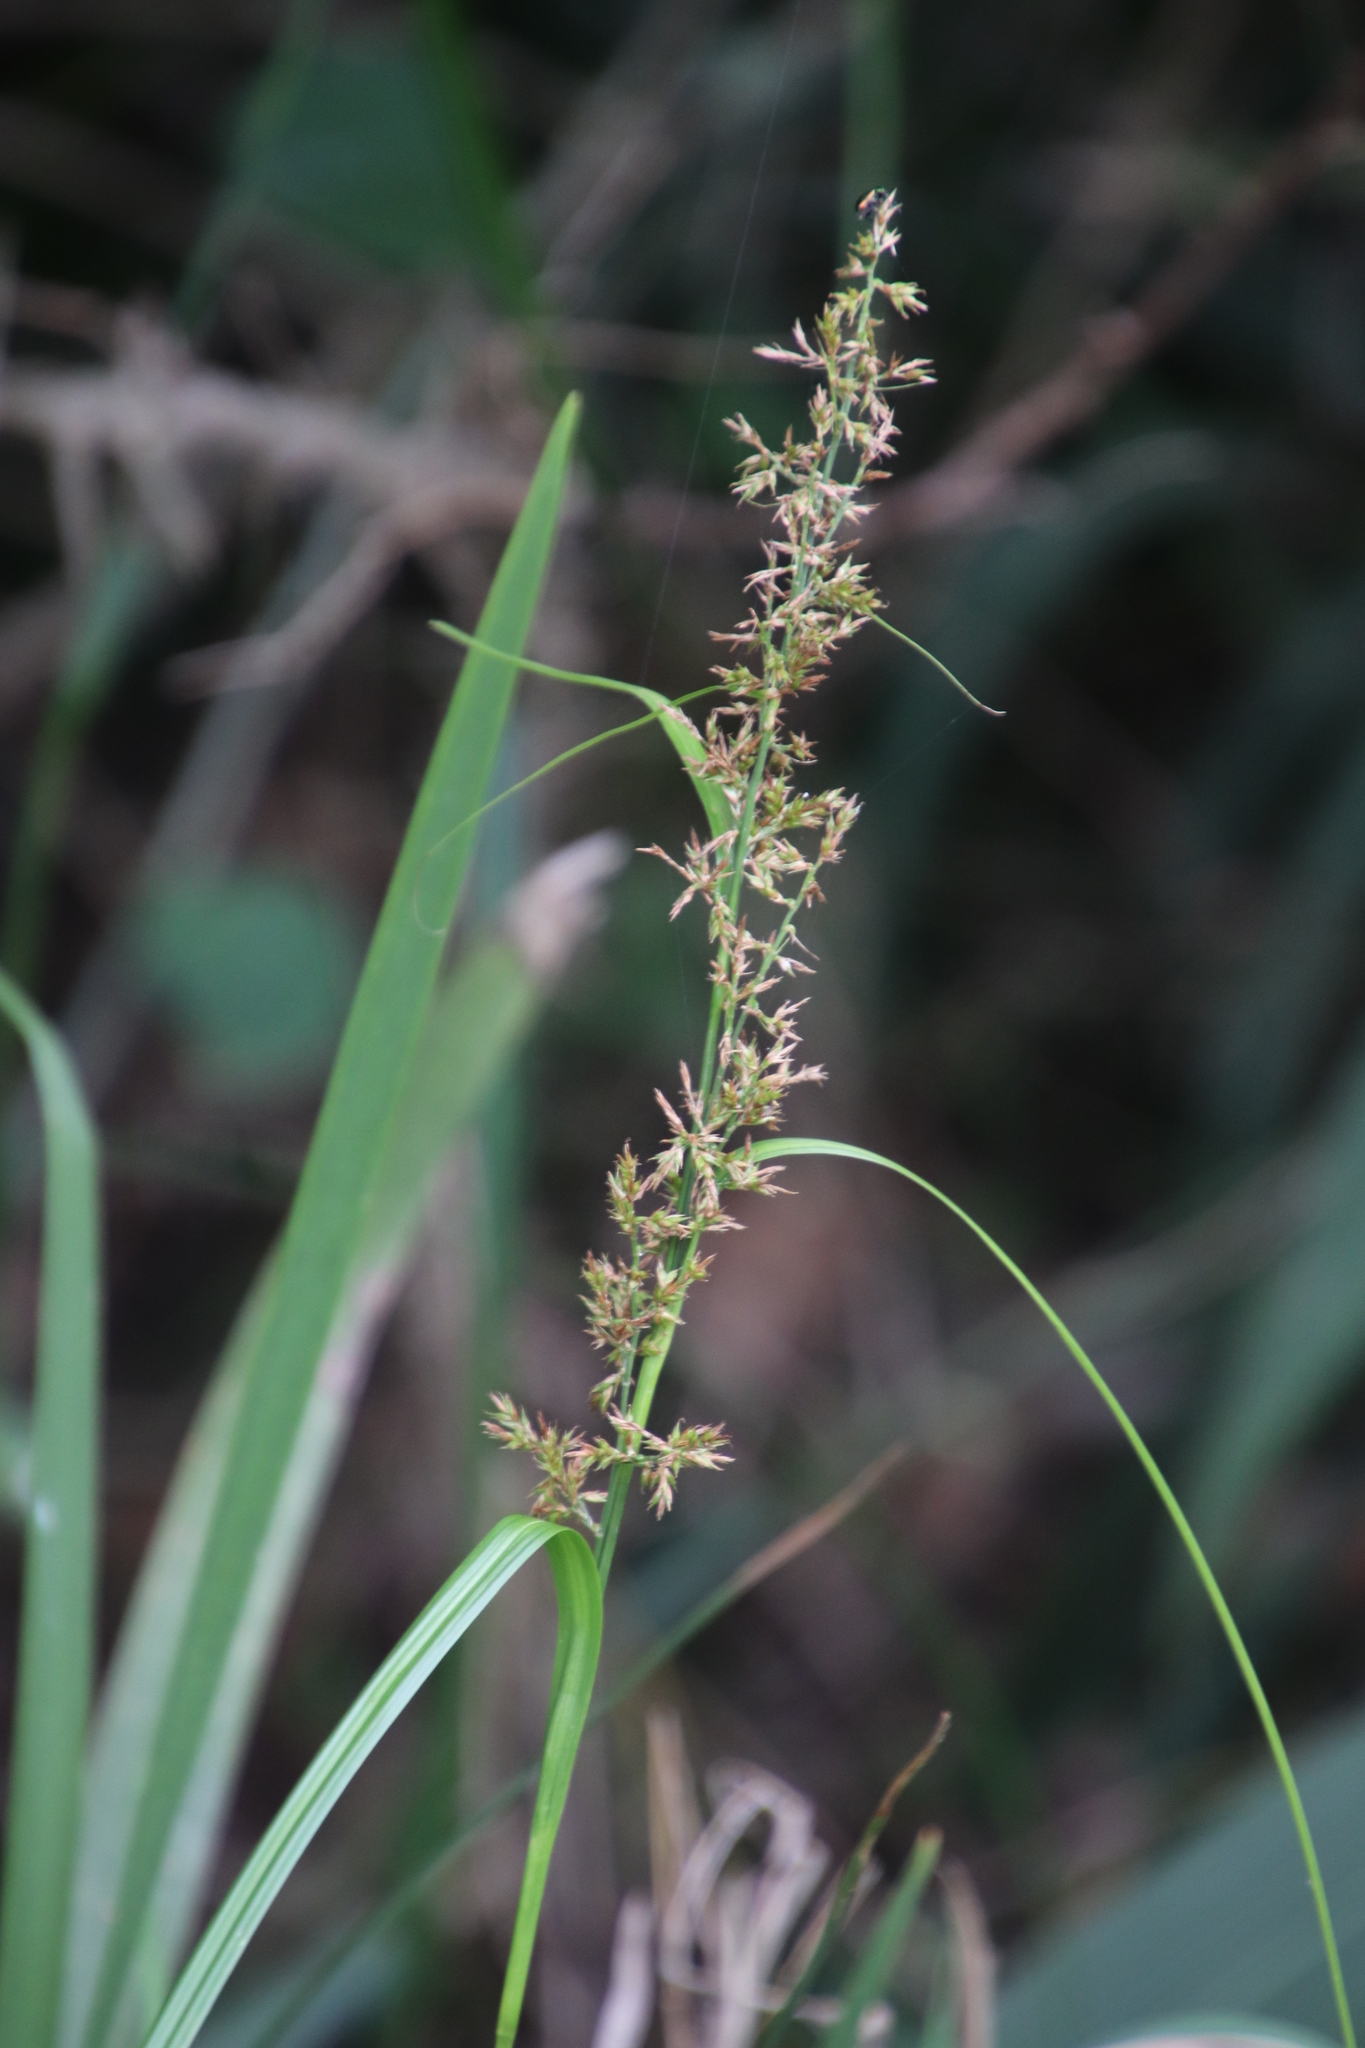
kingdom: Plantae
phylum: Tracheophyta
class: Liliopsida
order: Poales
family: Cyperaceae
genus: Carex
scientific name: Carex spicatopaniculata
